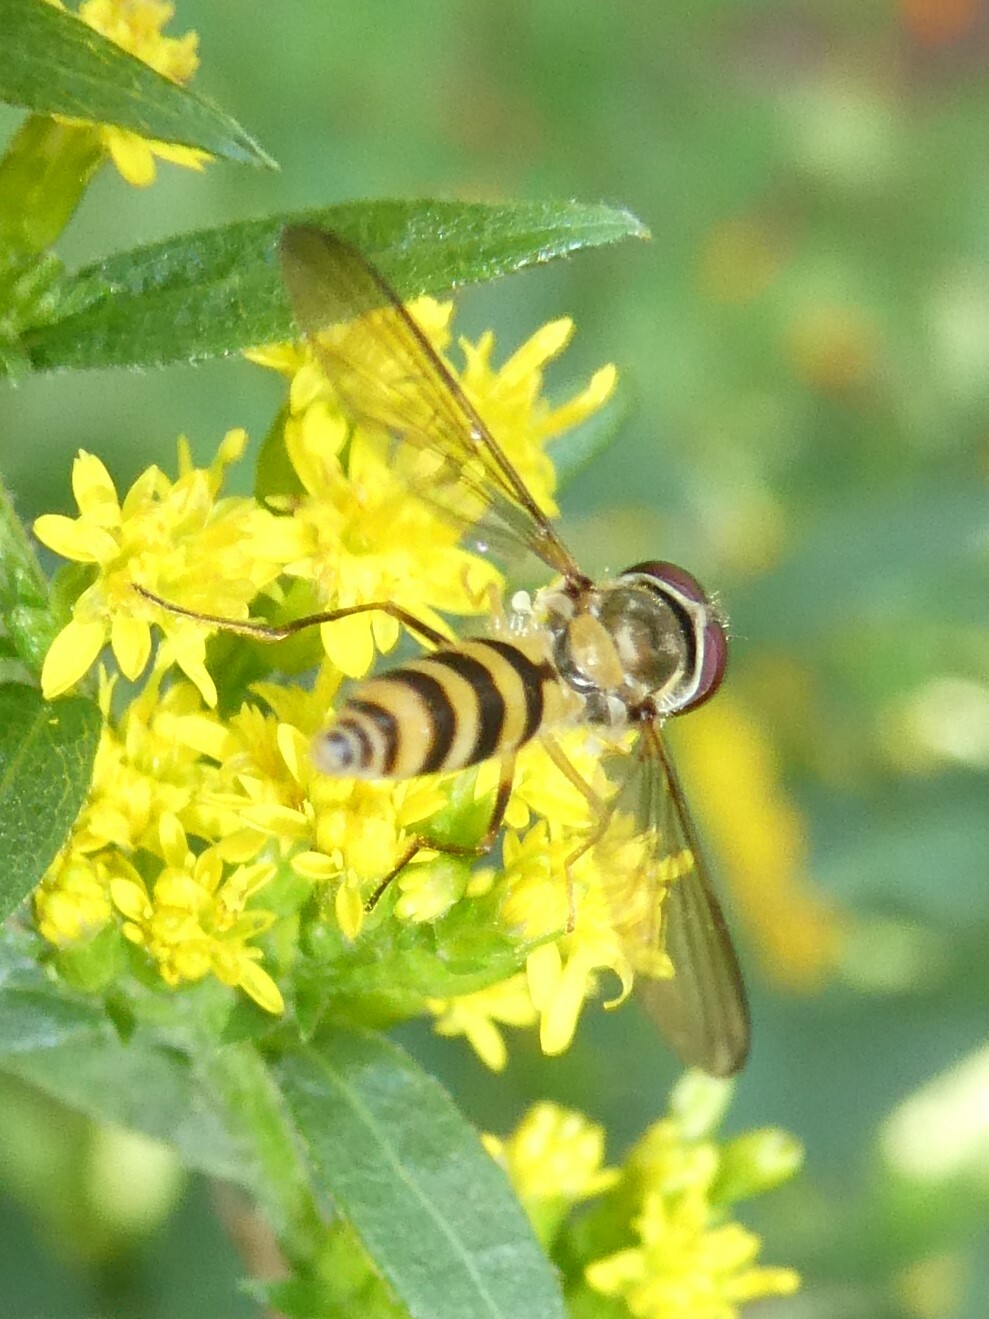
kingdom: Animalia
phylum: Arthropoda
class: Insecta
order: Diptera
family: Syrphidae
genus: Meliscaeva
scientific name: Meliscaeva cinctella
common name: American thintail fly
